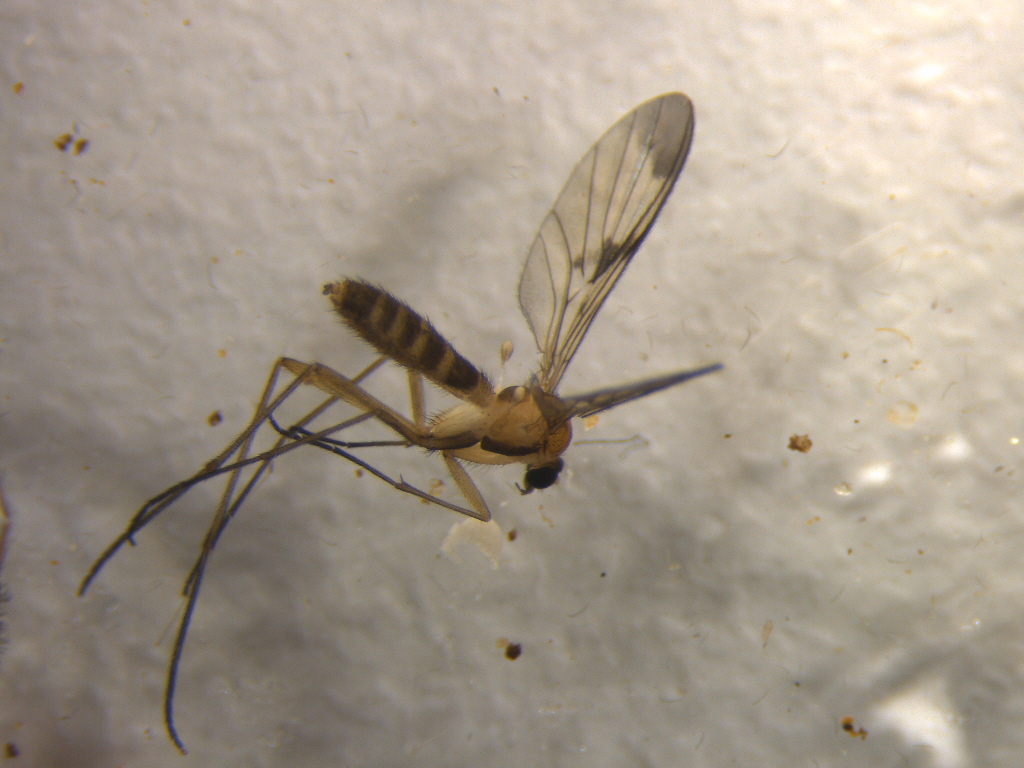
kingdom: Animalia
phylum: Arthropoda
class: Insecta
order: Diptera
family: Keroplatidae
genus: Macrocera
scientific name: Macrocera scoparia
